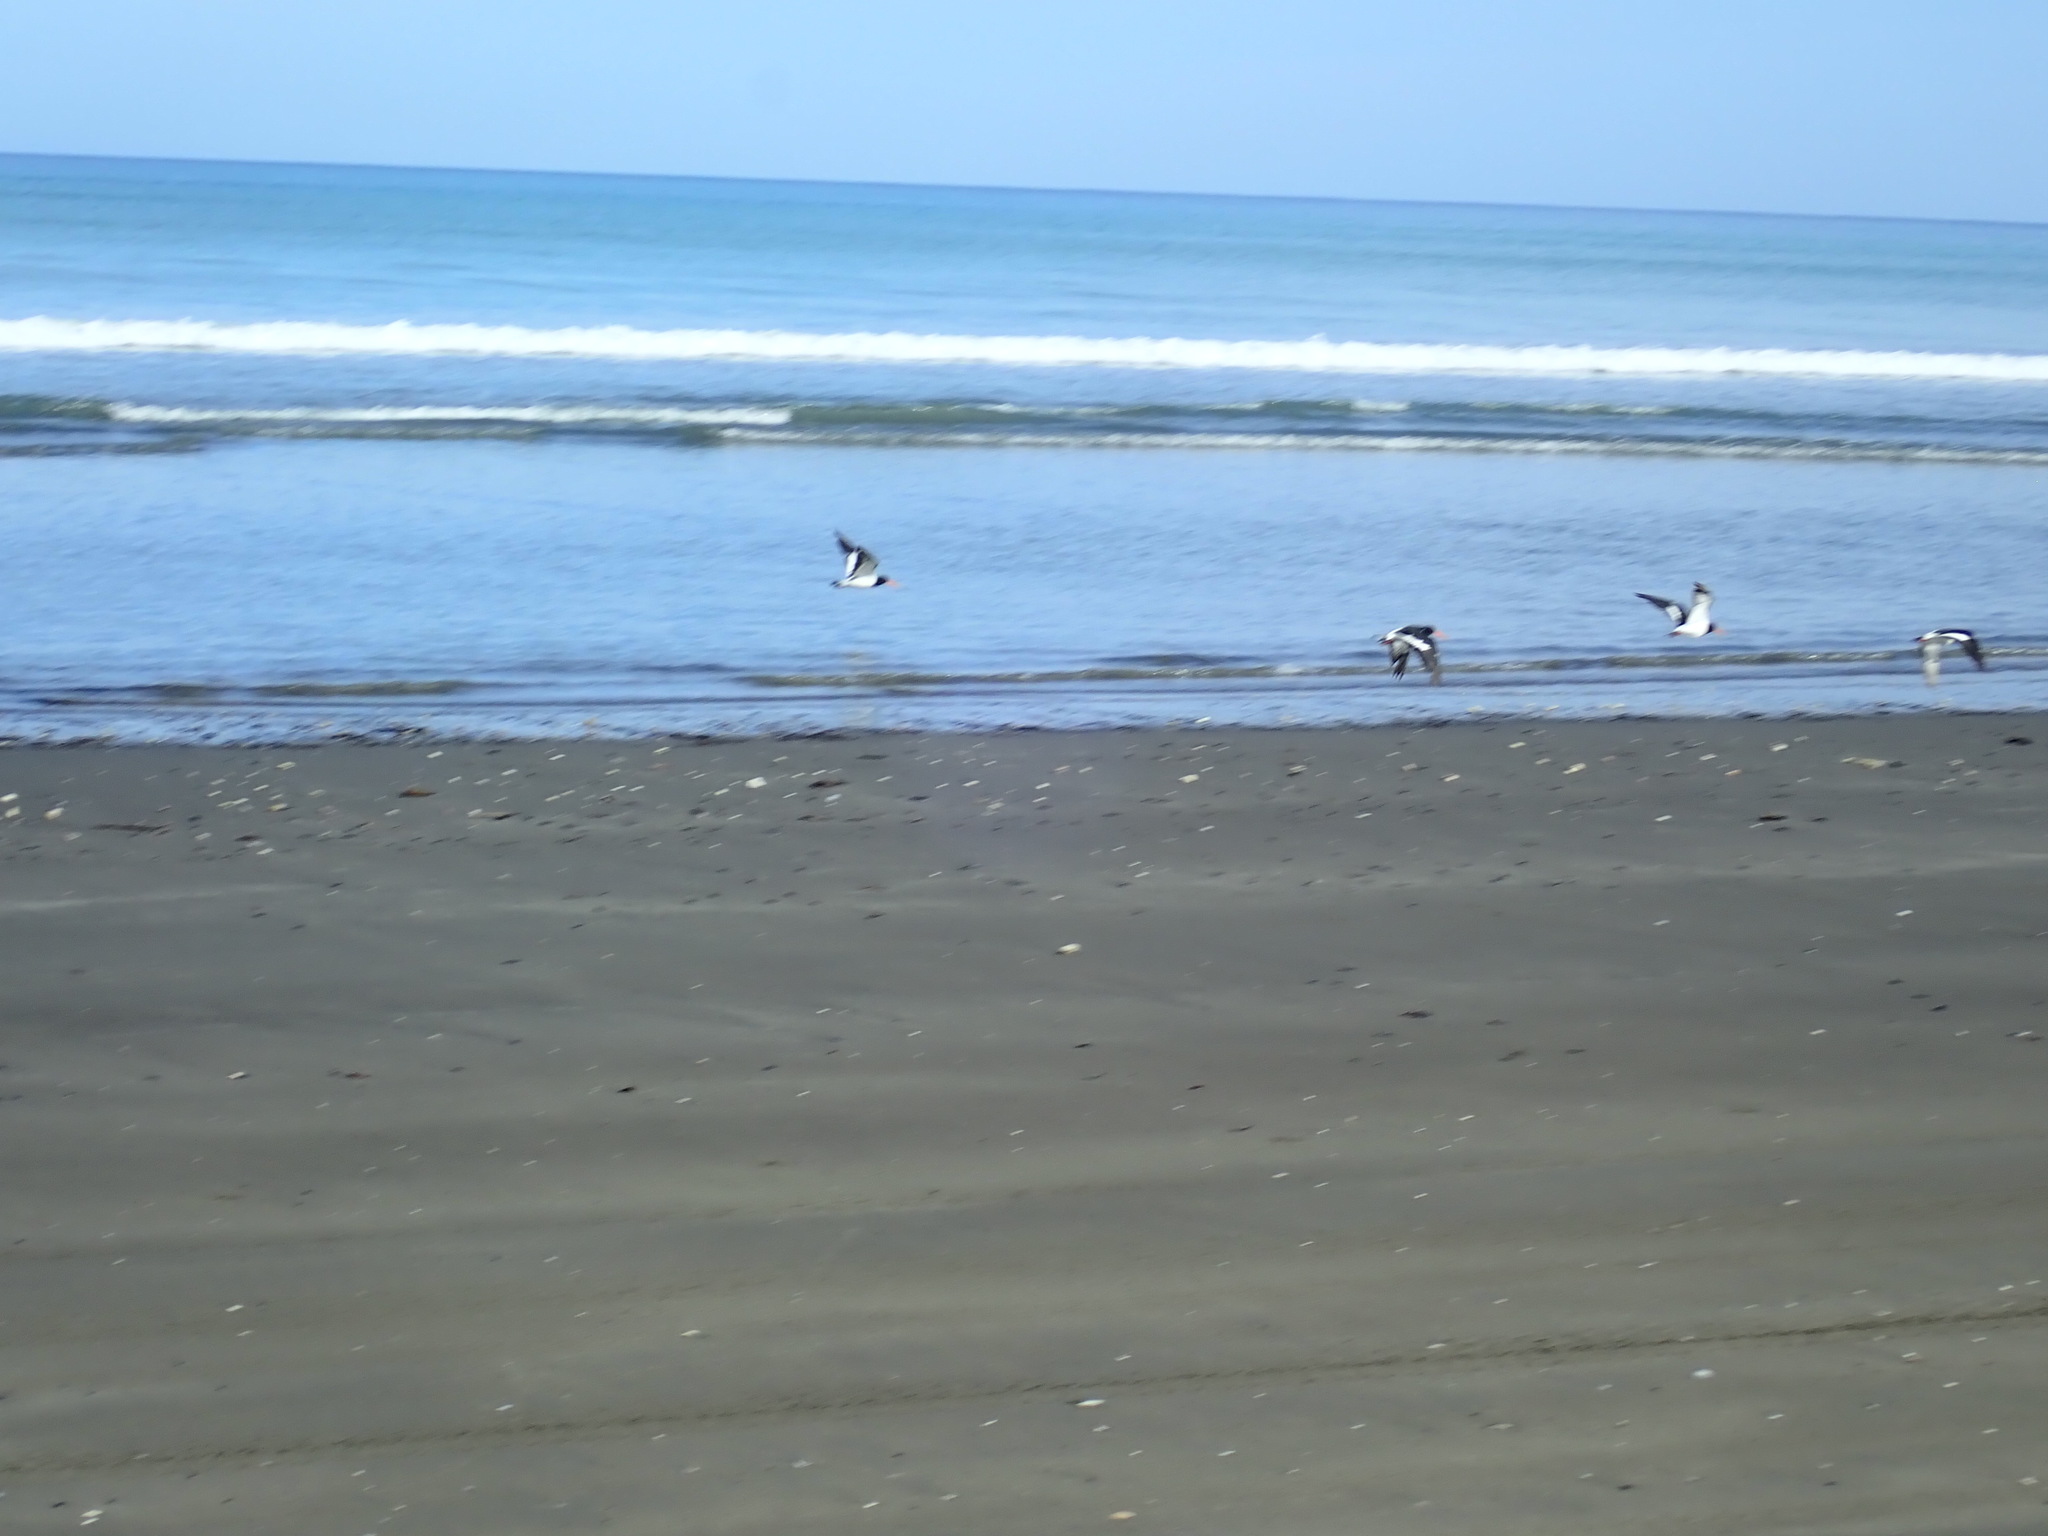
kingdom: Animalia
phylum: Chordata
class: Aves
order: Charadriiformes
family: Haematopodidae
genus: Haematopus
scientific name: Haematopus finschi
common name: South island oystercatcher
